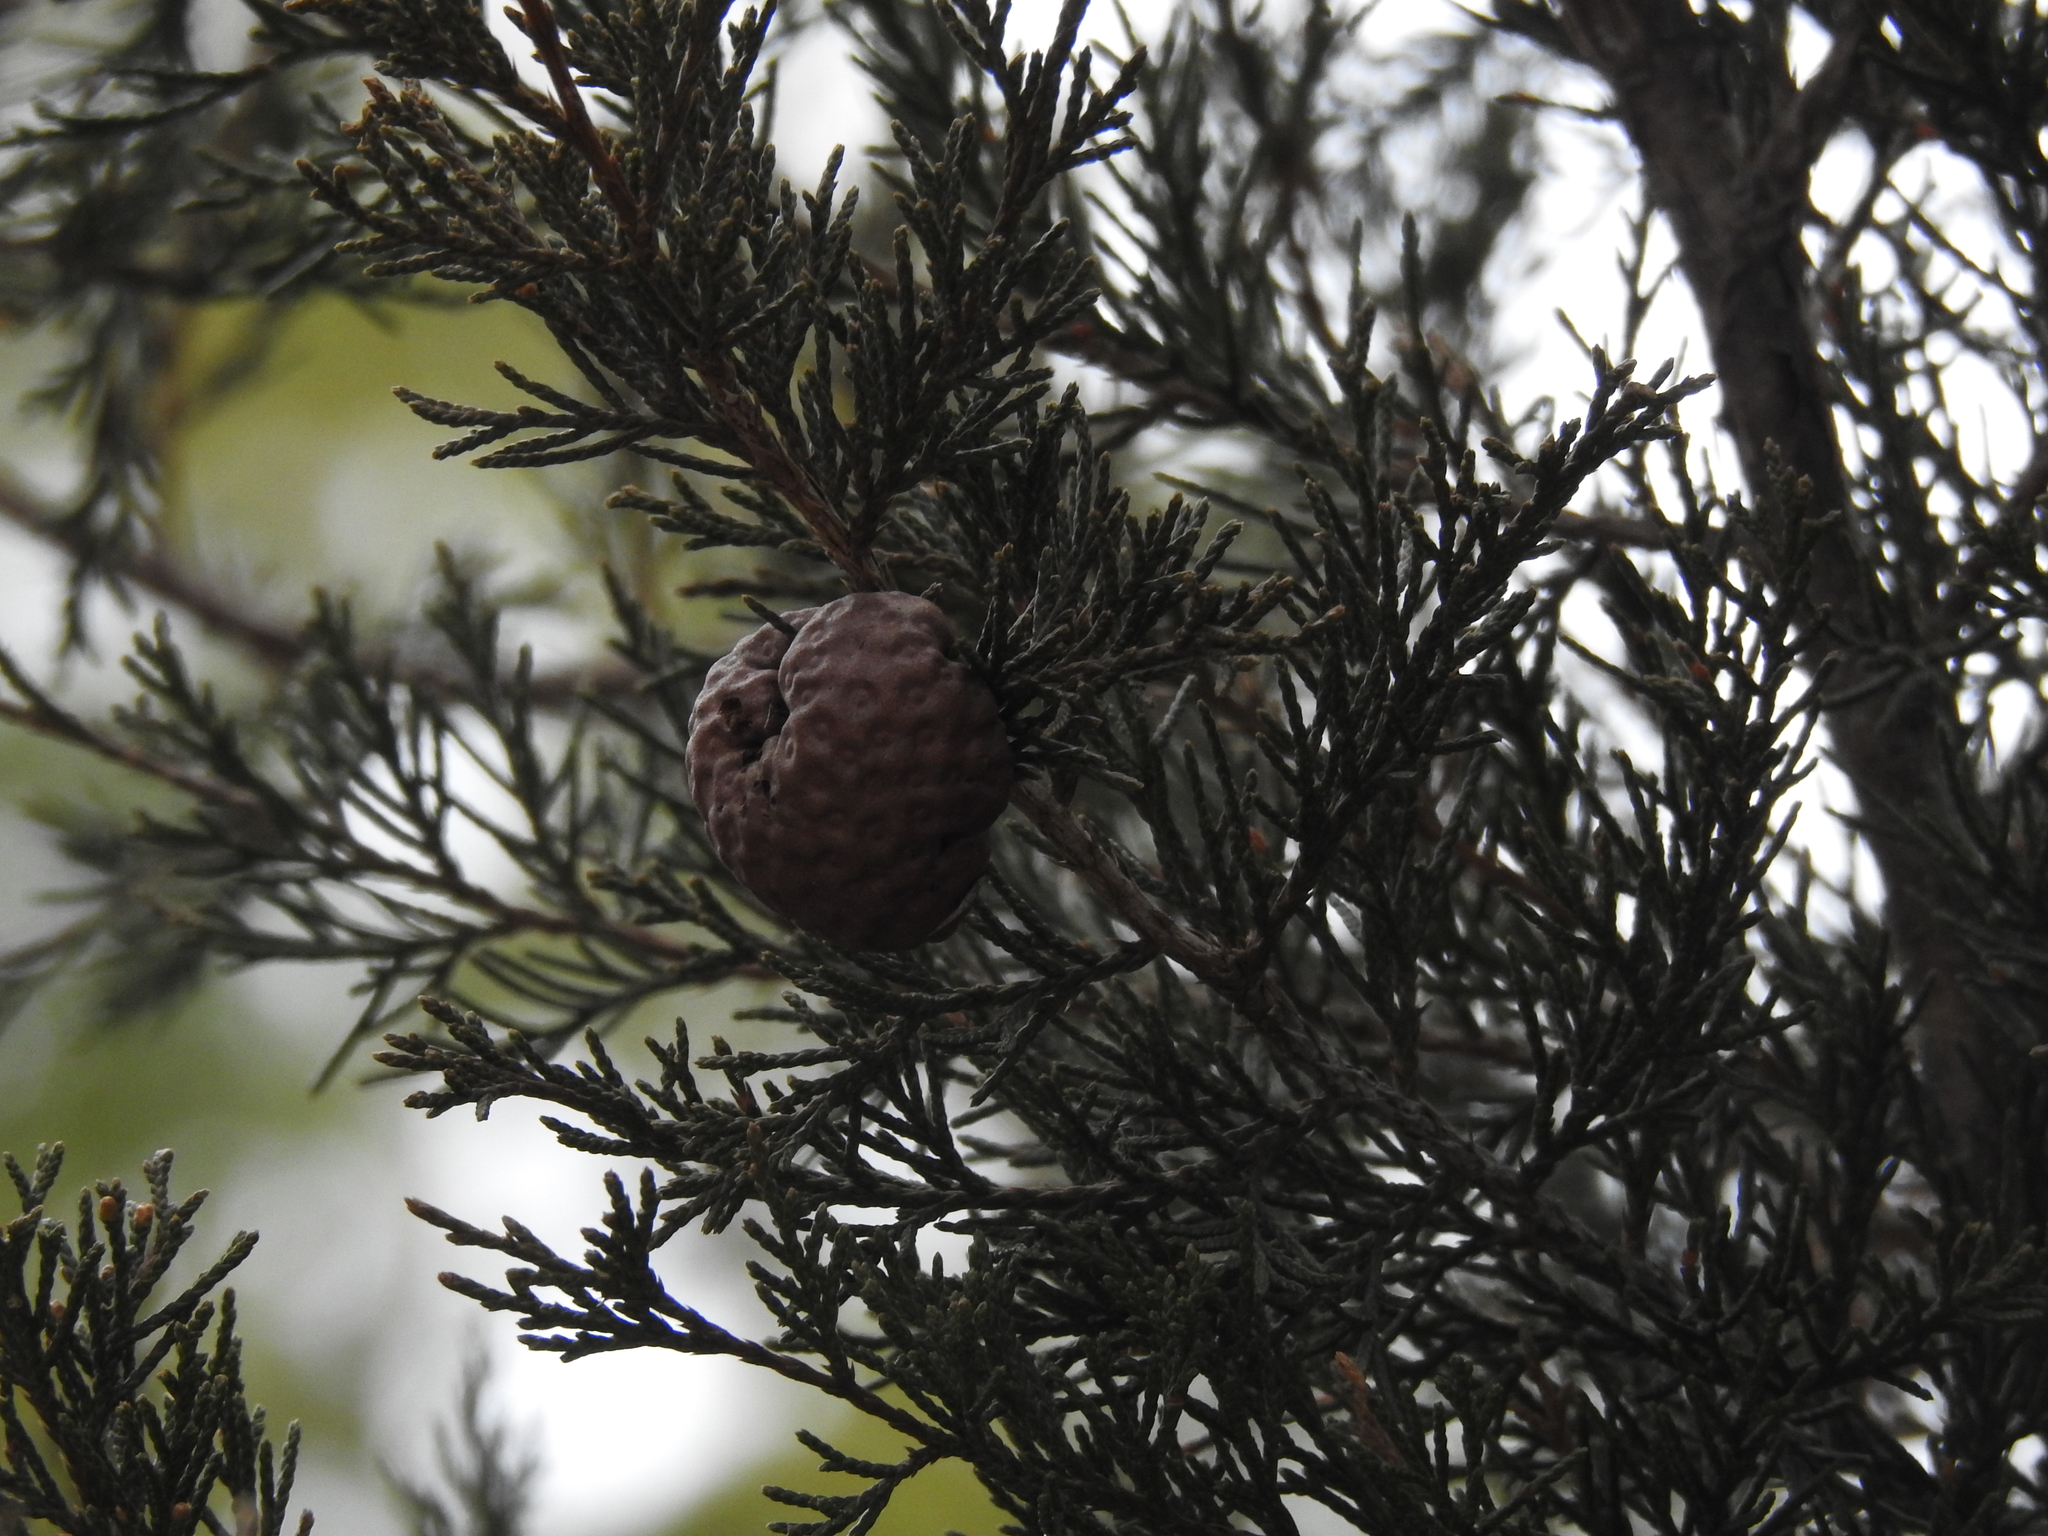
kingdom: Fungi
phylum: Basidiomycota
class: Pucciniomycetes
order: Pucciniales
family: Gymnosporangiaceae
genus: Gymnosporangium
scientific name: Gymnosporangium juniperi-virginianae
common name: Juniper-apple rust
